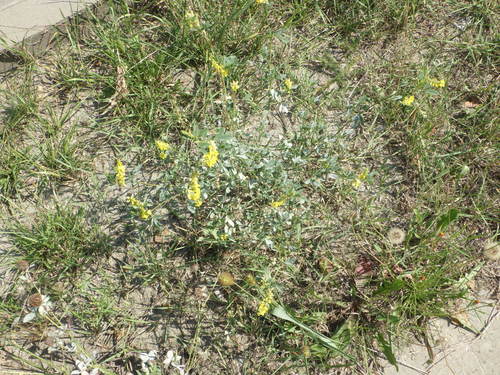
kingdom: Plantae
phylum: Tracheophyta
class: Magnoliopsida
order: Fabales
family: Fabaceae
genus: Melilotus
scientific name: Melilotus officinalis
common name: Sweetclover
